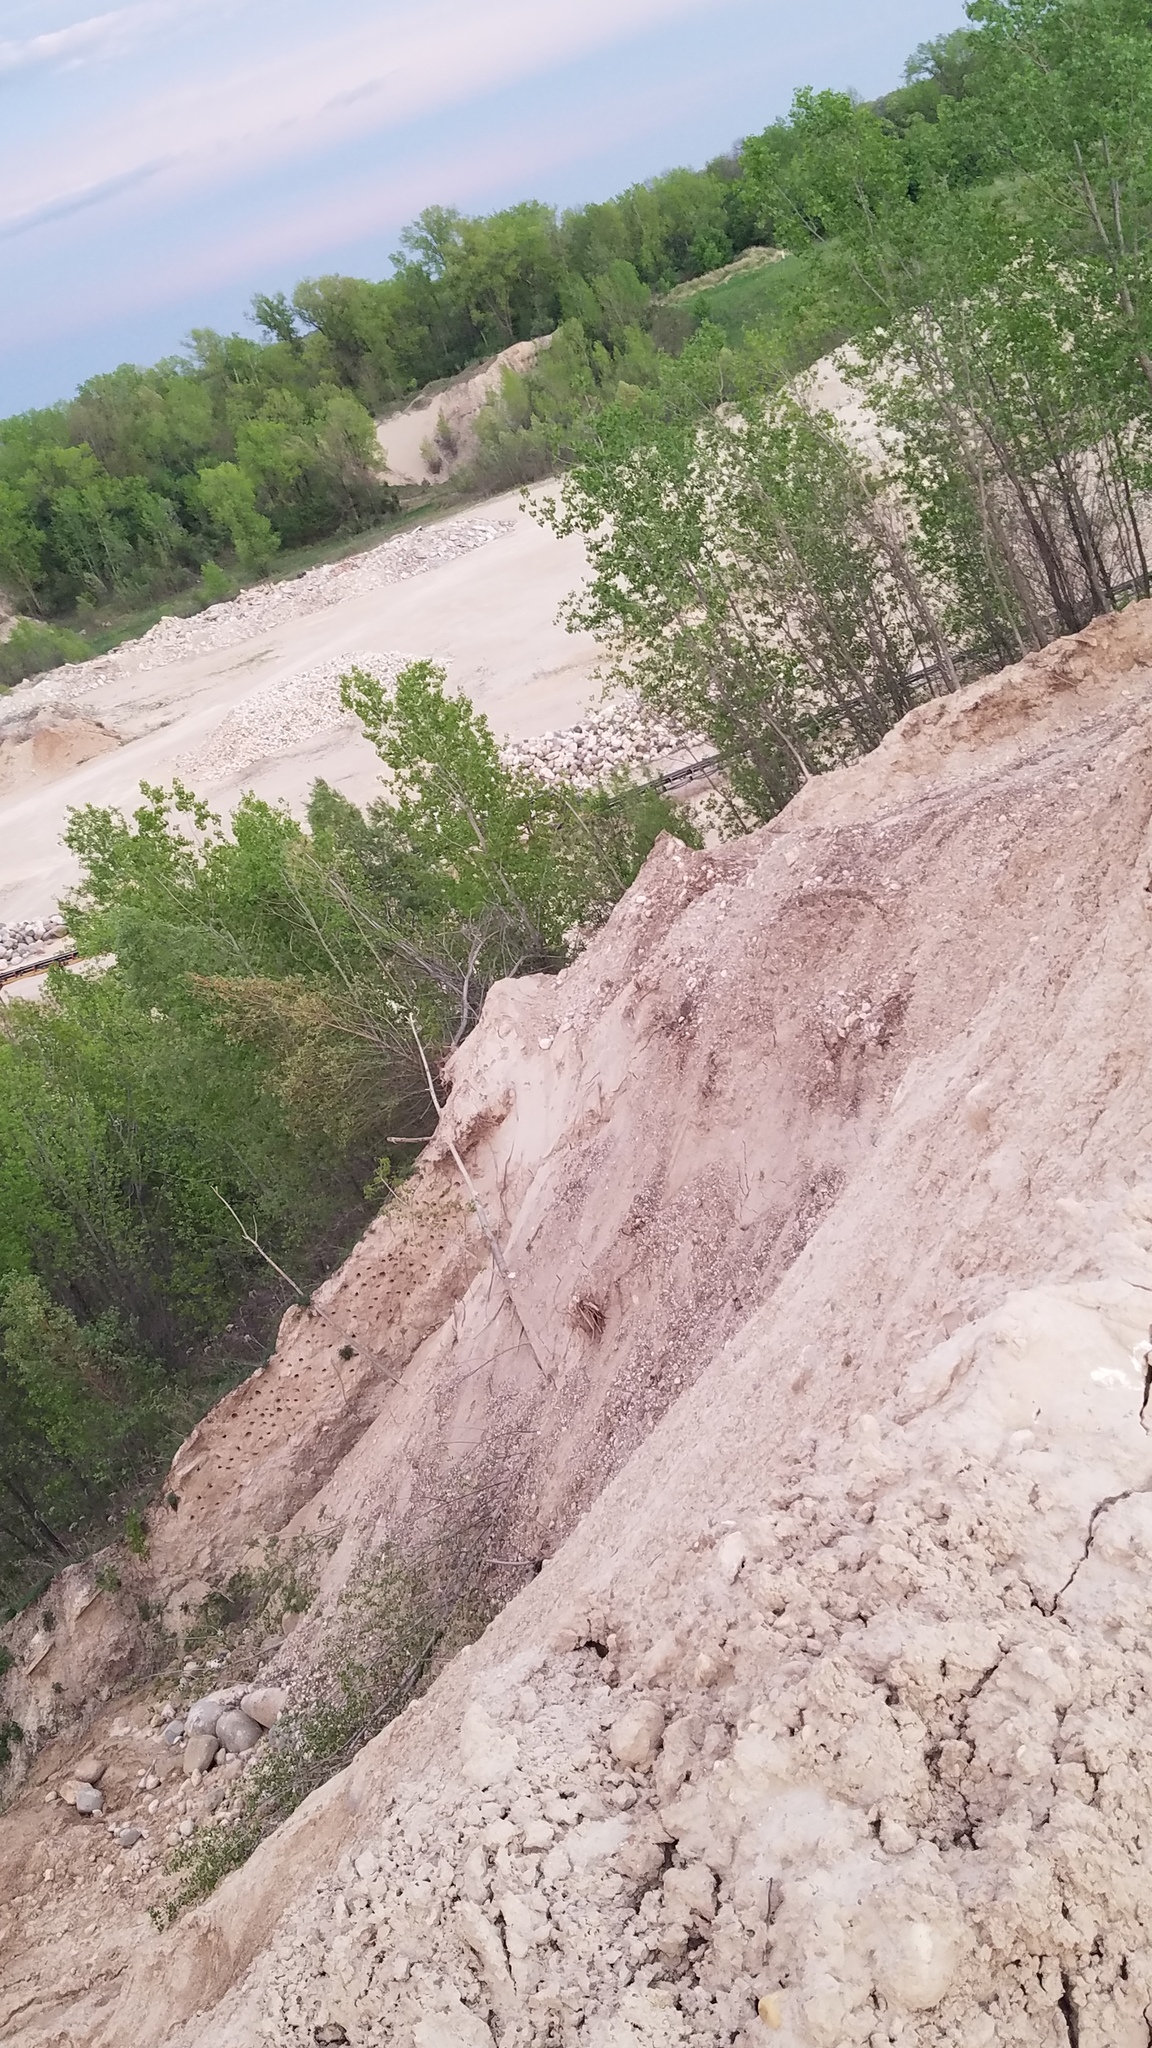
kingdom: Animalia
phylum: Chordata
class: Aves
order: Passeriformes
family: Hirundinidae
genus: Riparia
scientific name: Riparia riparia
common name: Sand martin
